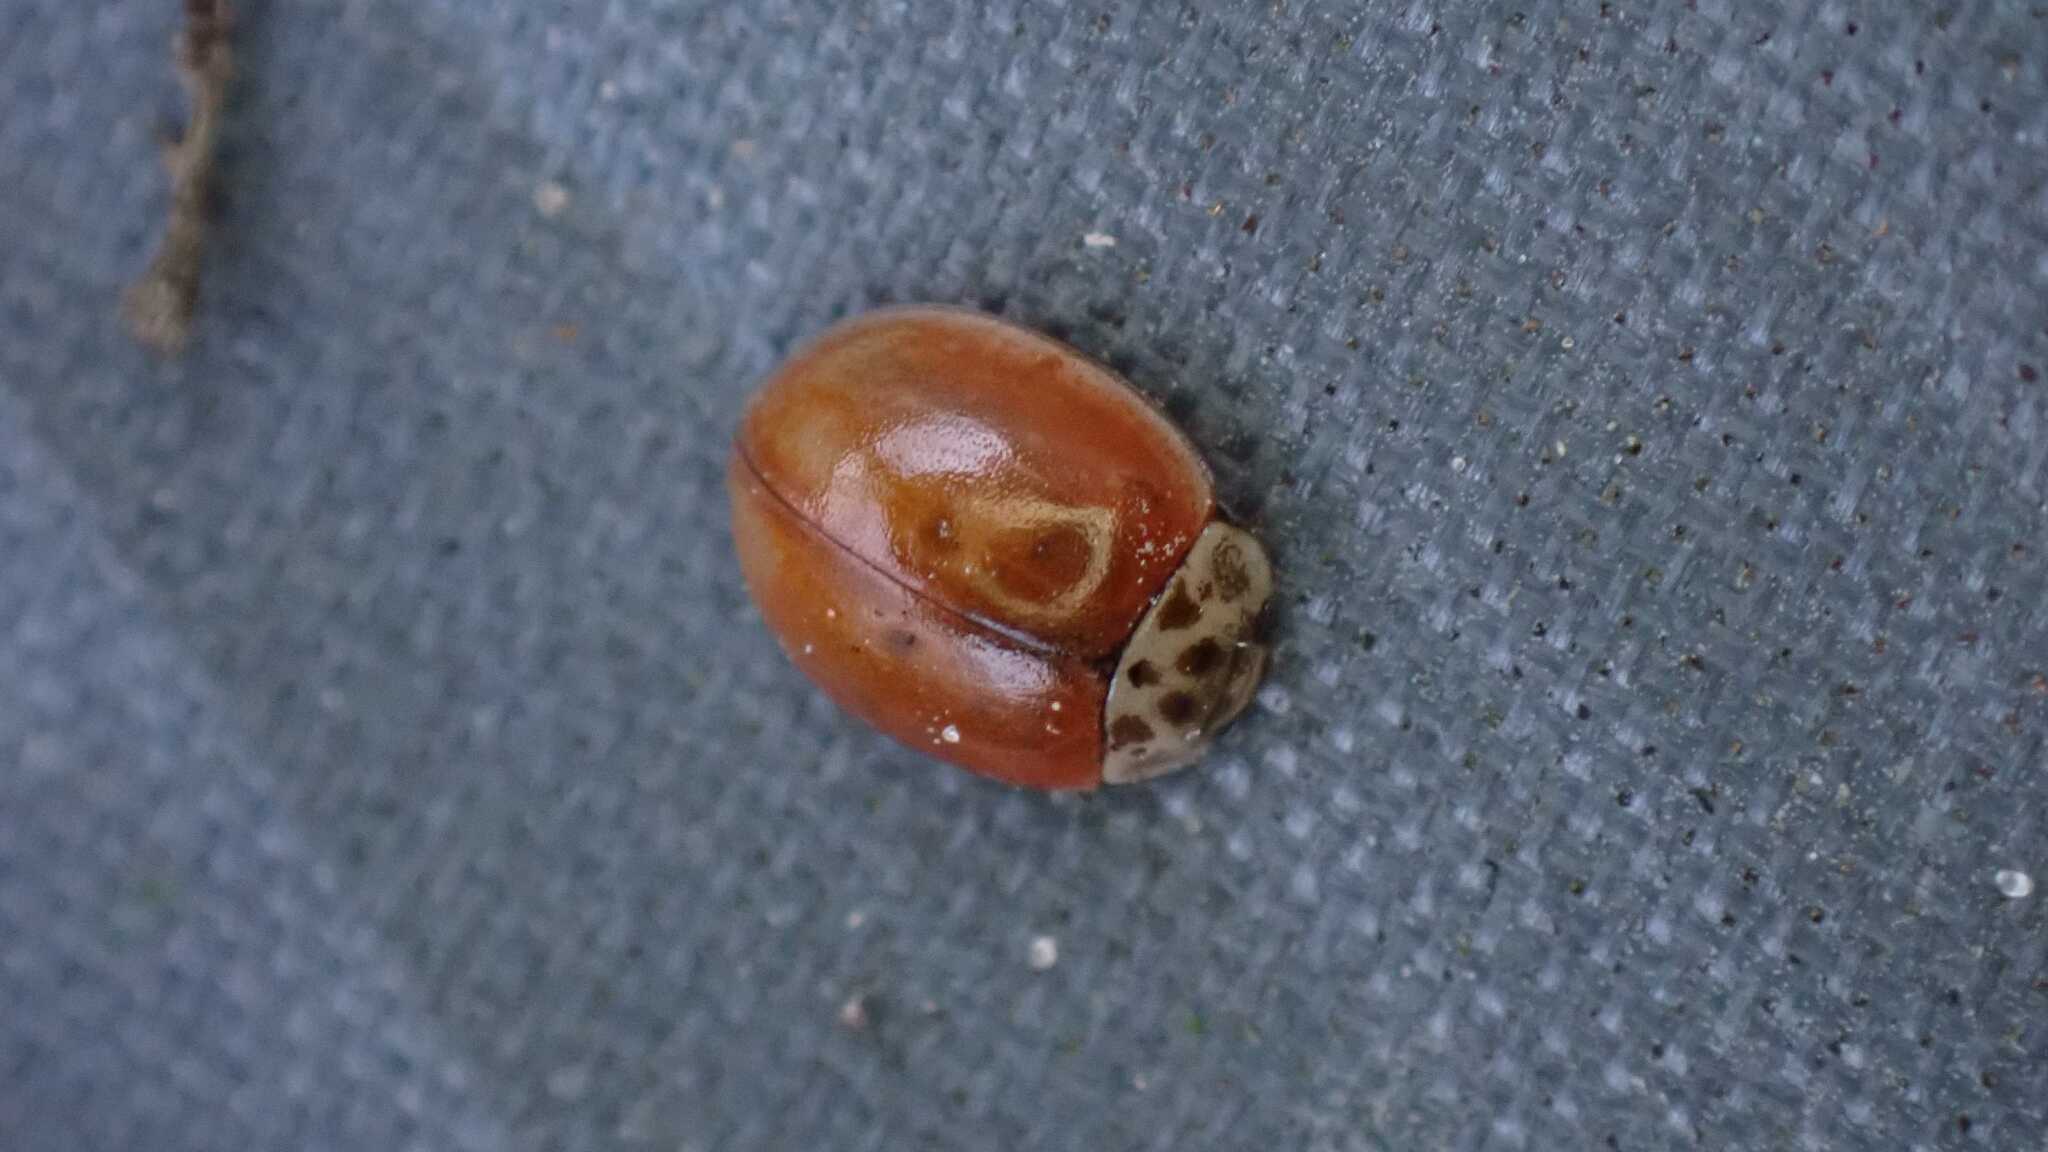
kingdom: Animalia
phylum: Arthropoda
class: Insecta
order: Coleoptera
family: Coccinellidae
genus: Adalia
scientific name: Adalia decempunctata
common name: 10-spot ladybird
